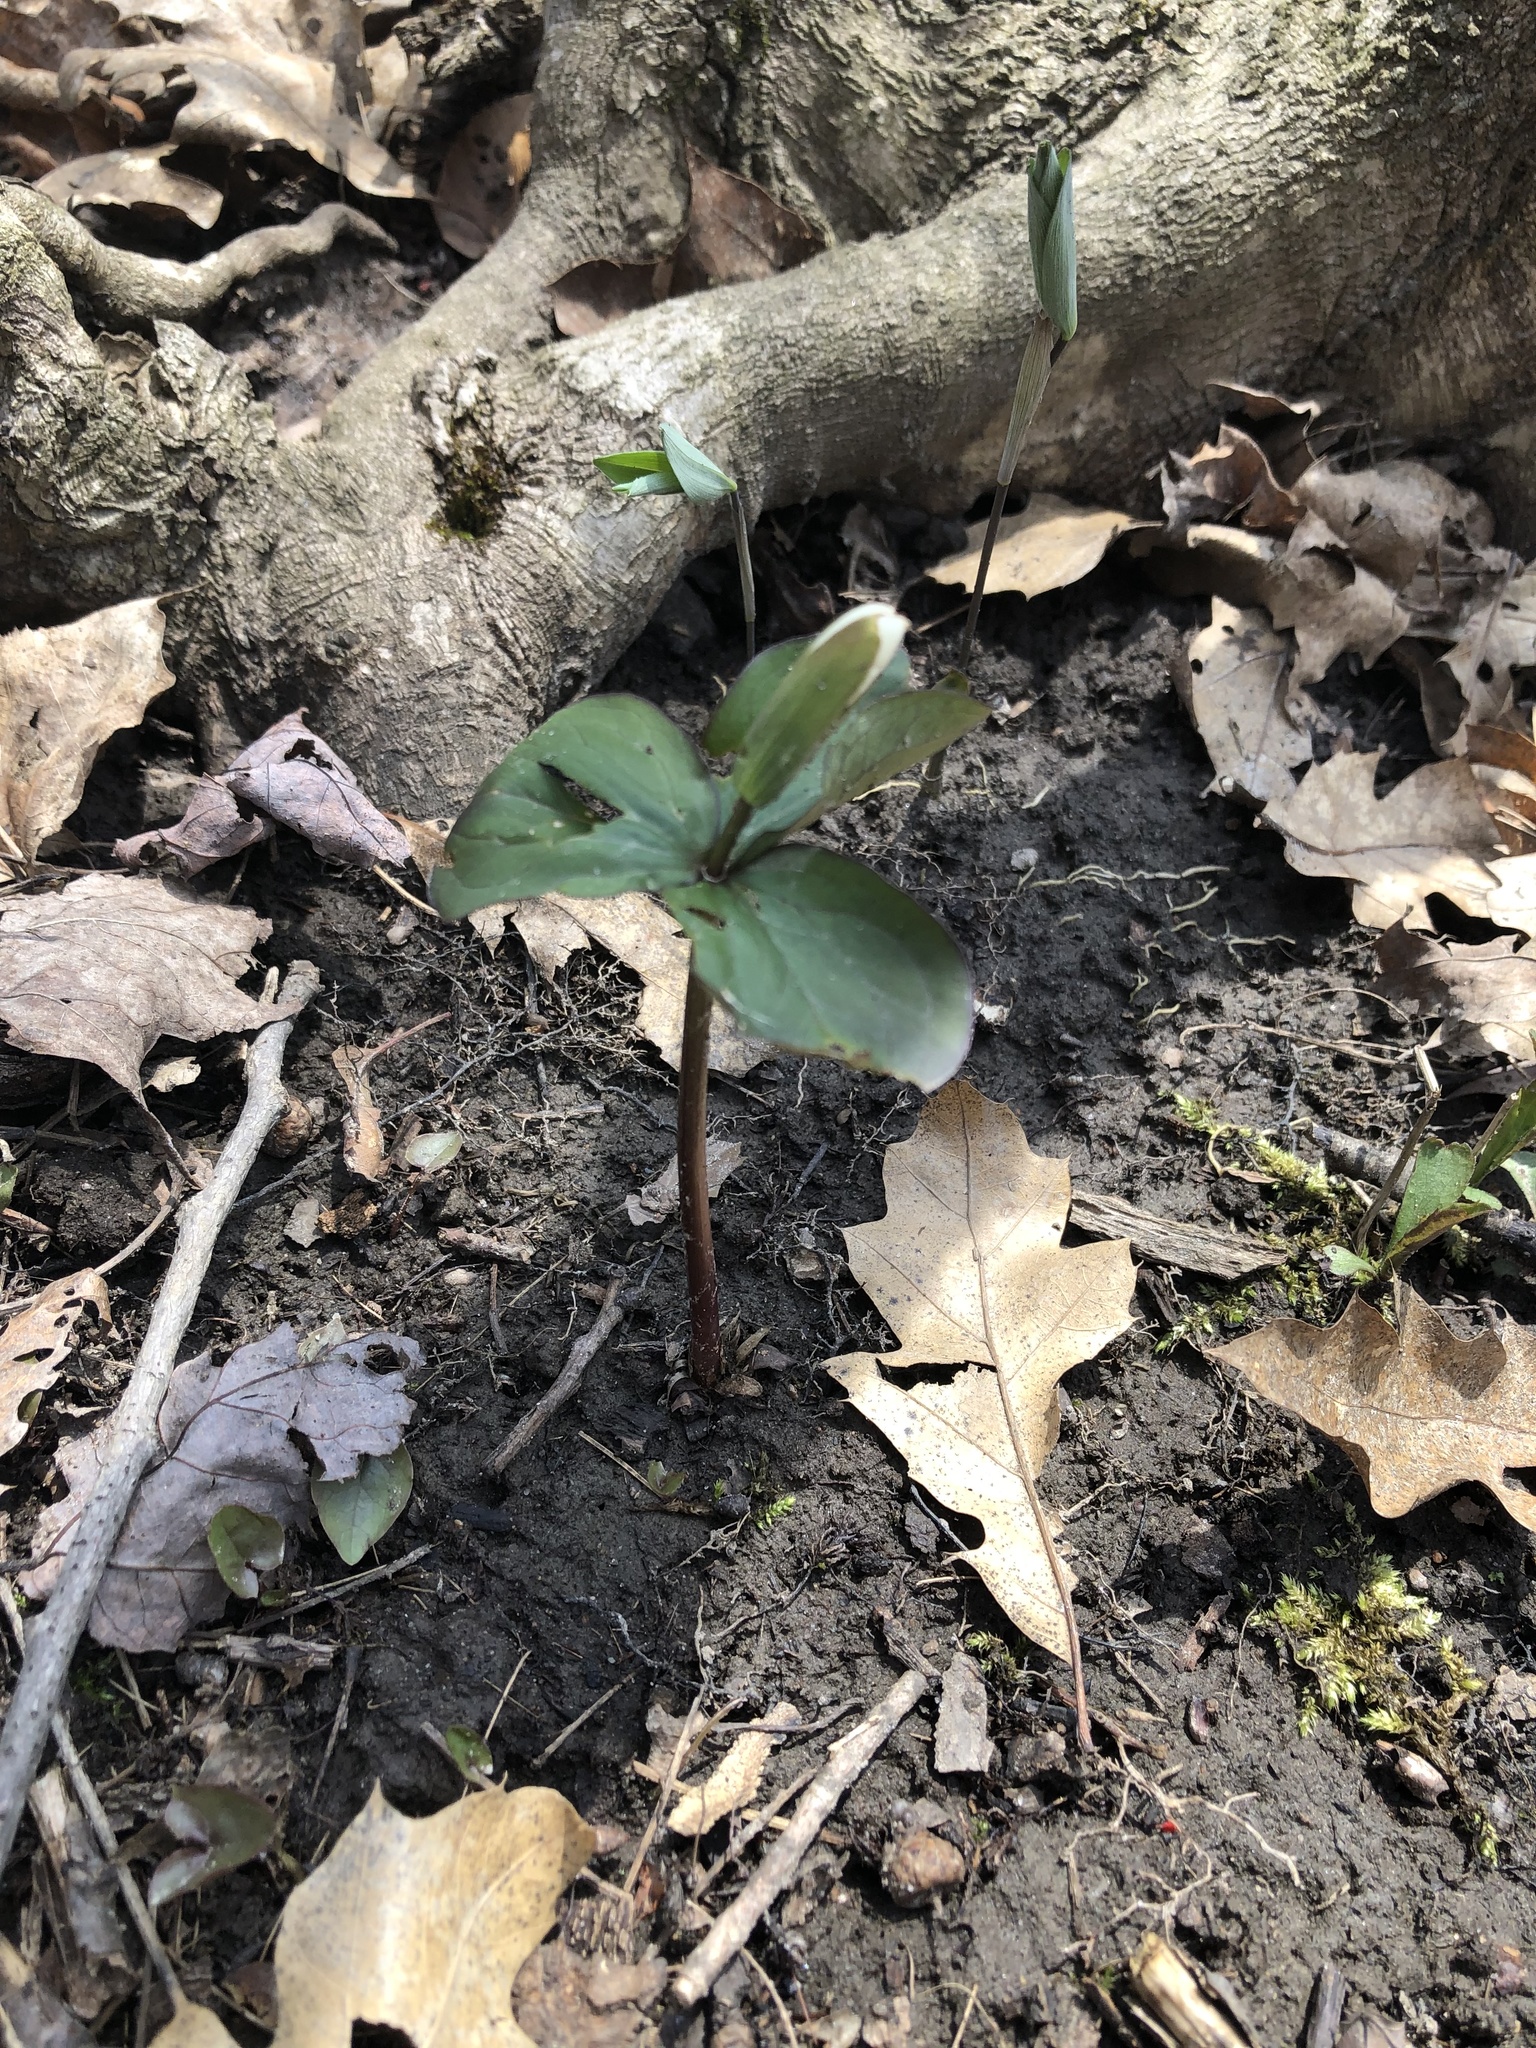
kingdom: Plantae
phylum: Tracheophyta
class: Liliopsida
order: Liliales
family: Melanthiaceae
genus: Trillium
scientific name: Trillium grandiflorum
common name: Great white trillium
